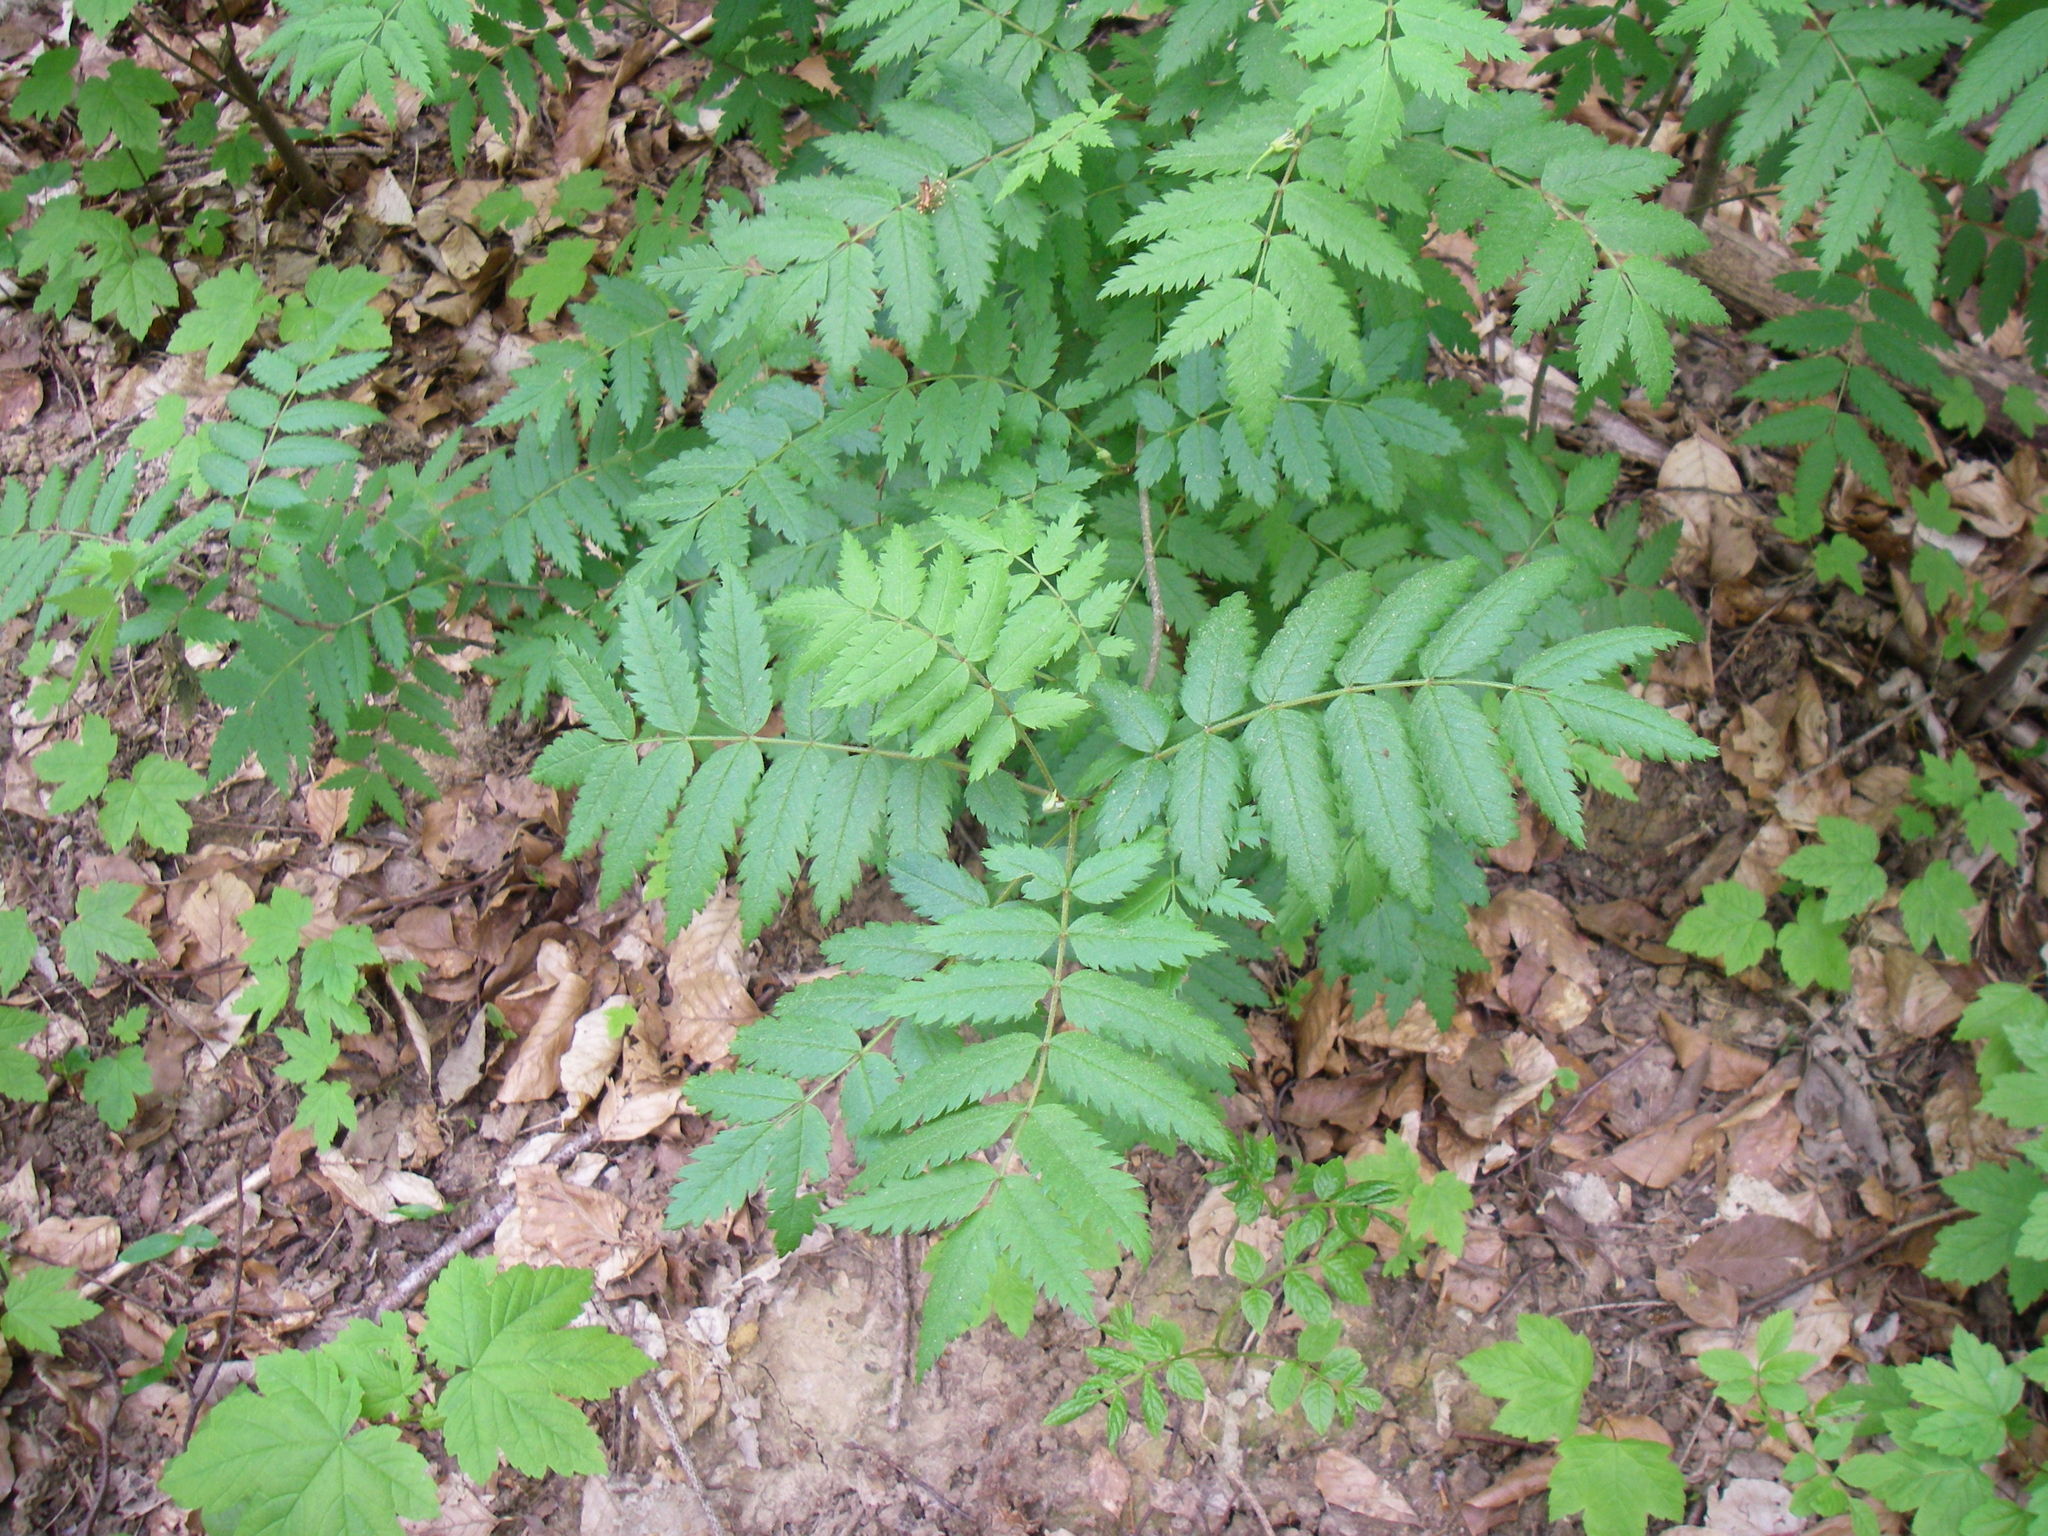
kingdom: Plantae
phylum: Tracheophyta
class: Magnoliopsida
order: Rosales
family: Rosaceae
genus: Sorbus
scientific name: Sorbus aucuparia
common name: Rowan
